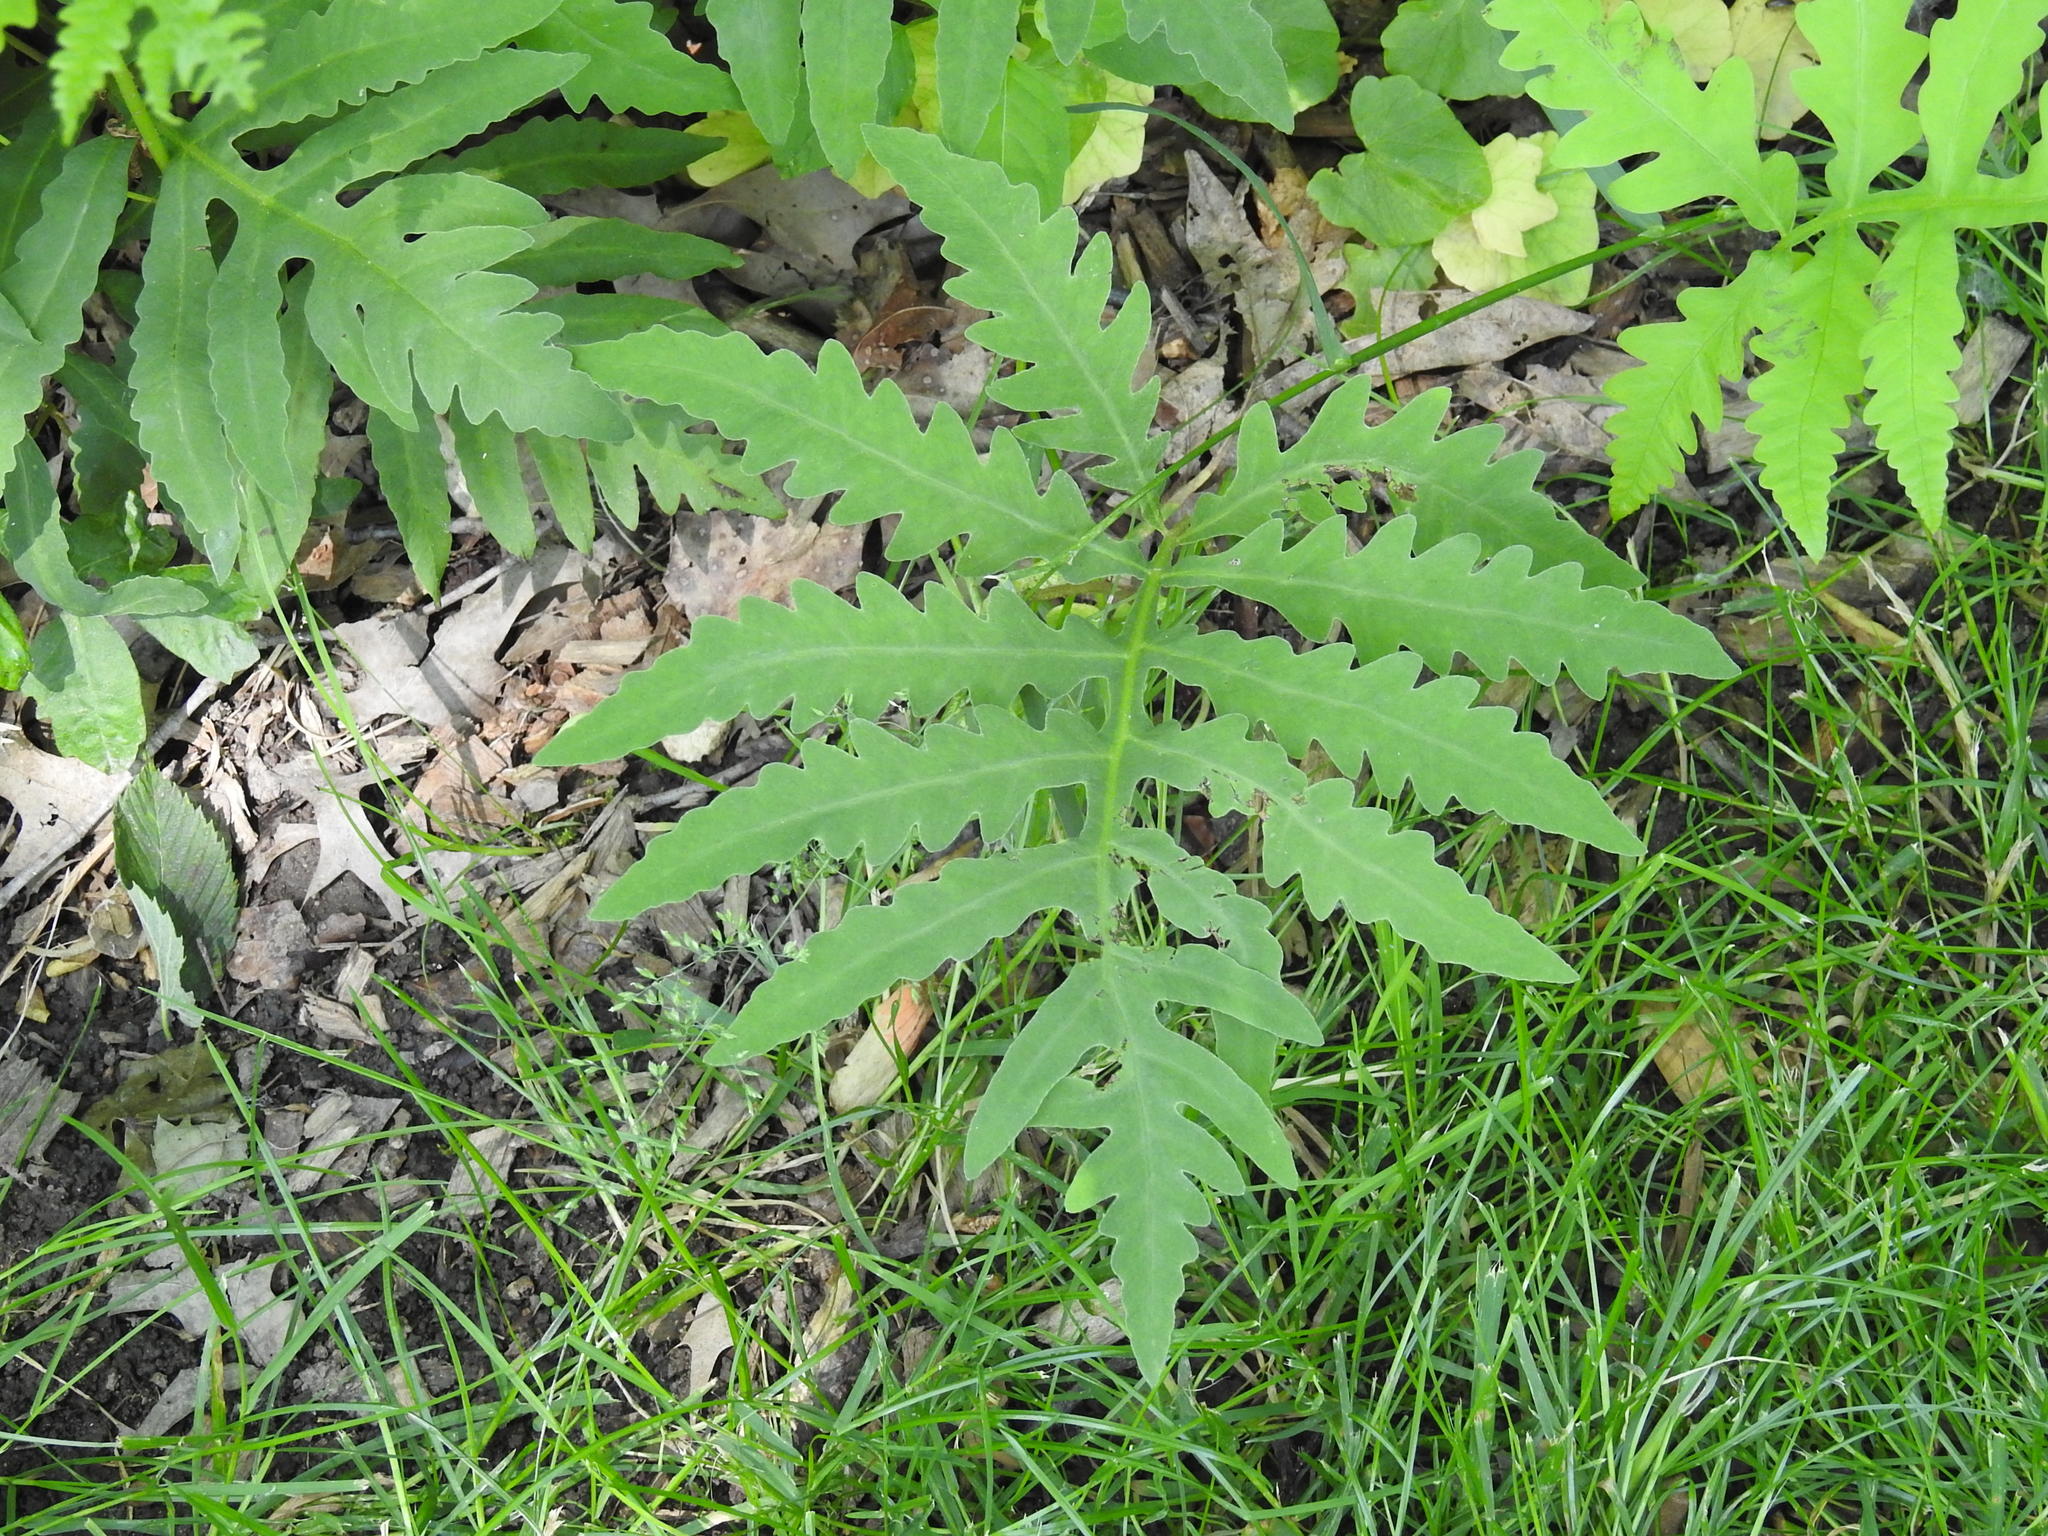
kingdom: Plantae
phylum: Tracheophyta
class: Polypodiopsida
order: Polypodiales
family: Onocleaceae
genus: Onoclea
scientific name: Onoclea sensibilis
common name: Sensitive fern
